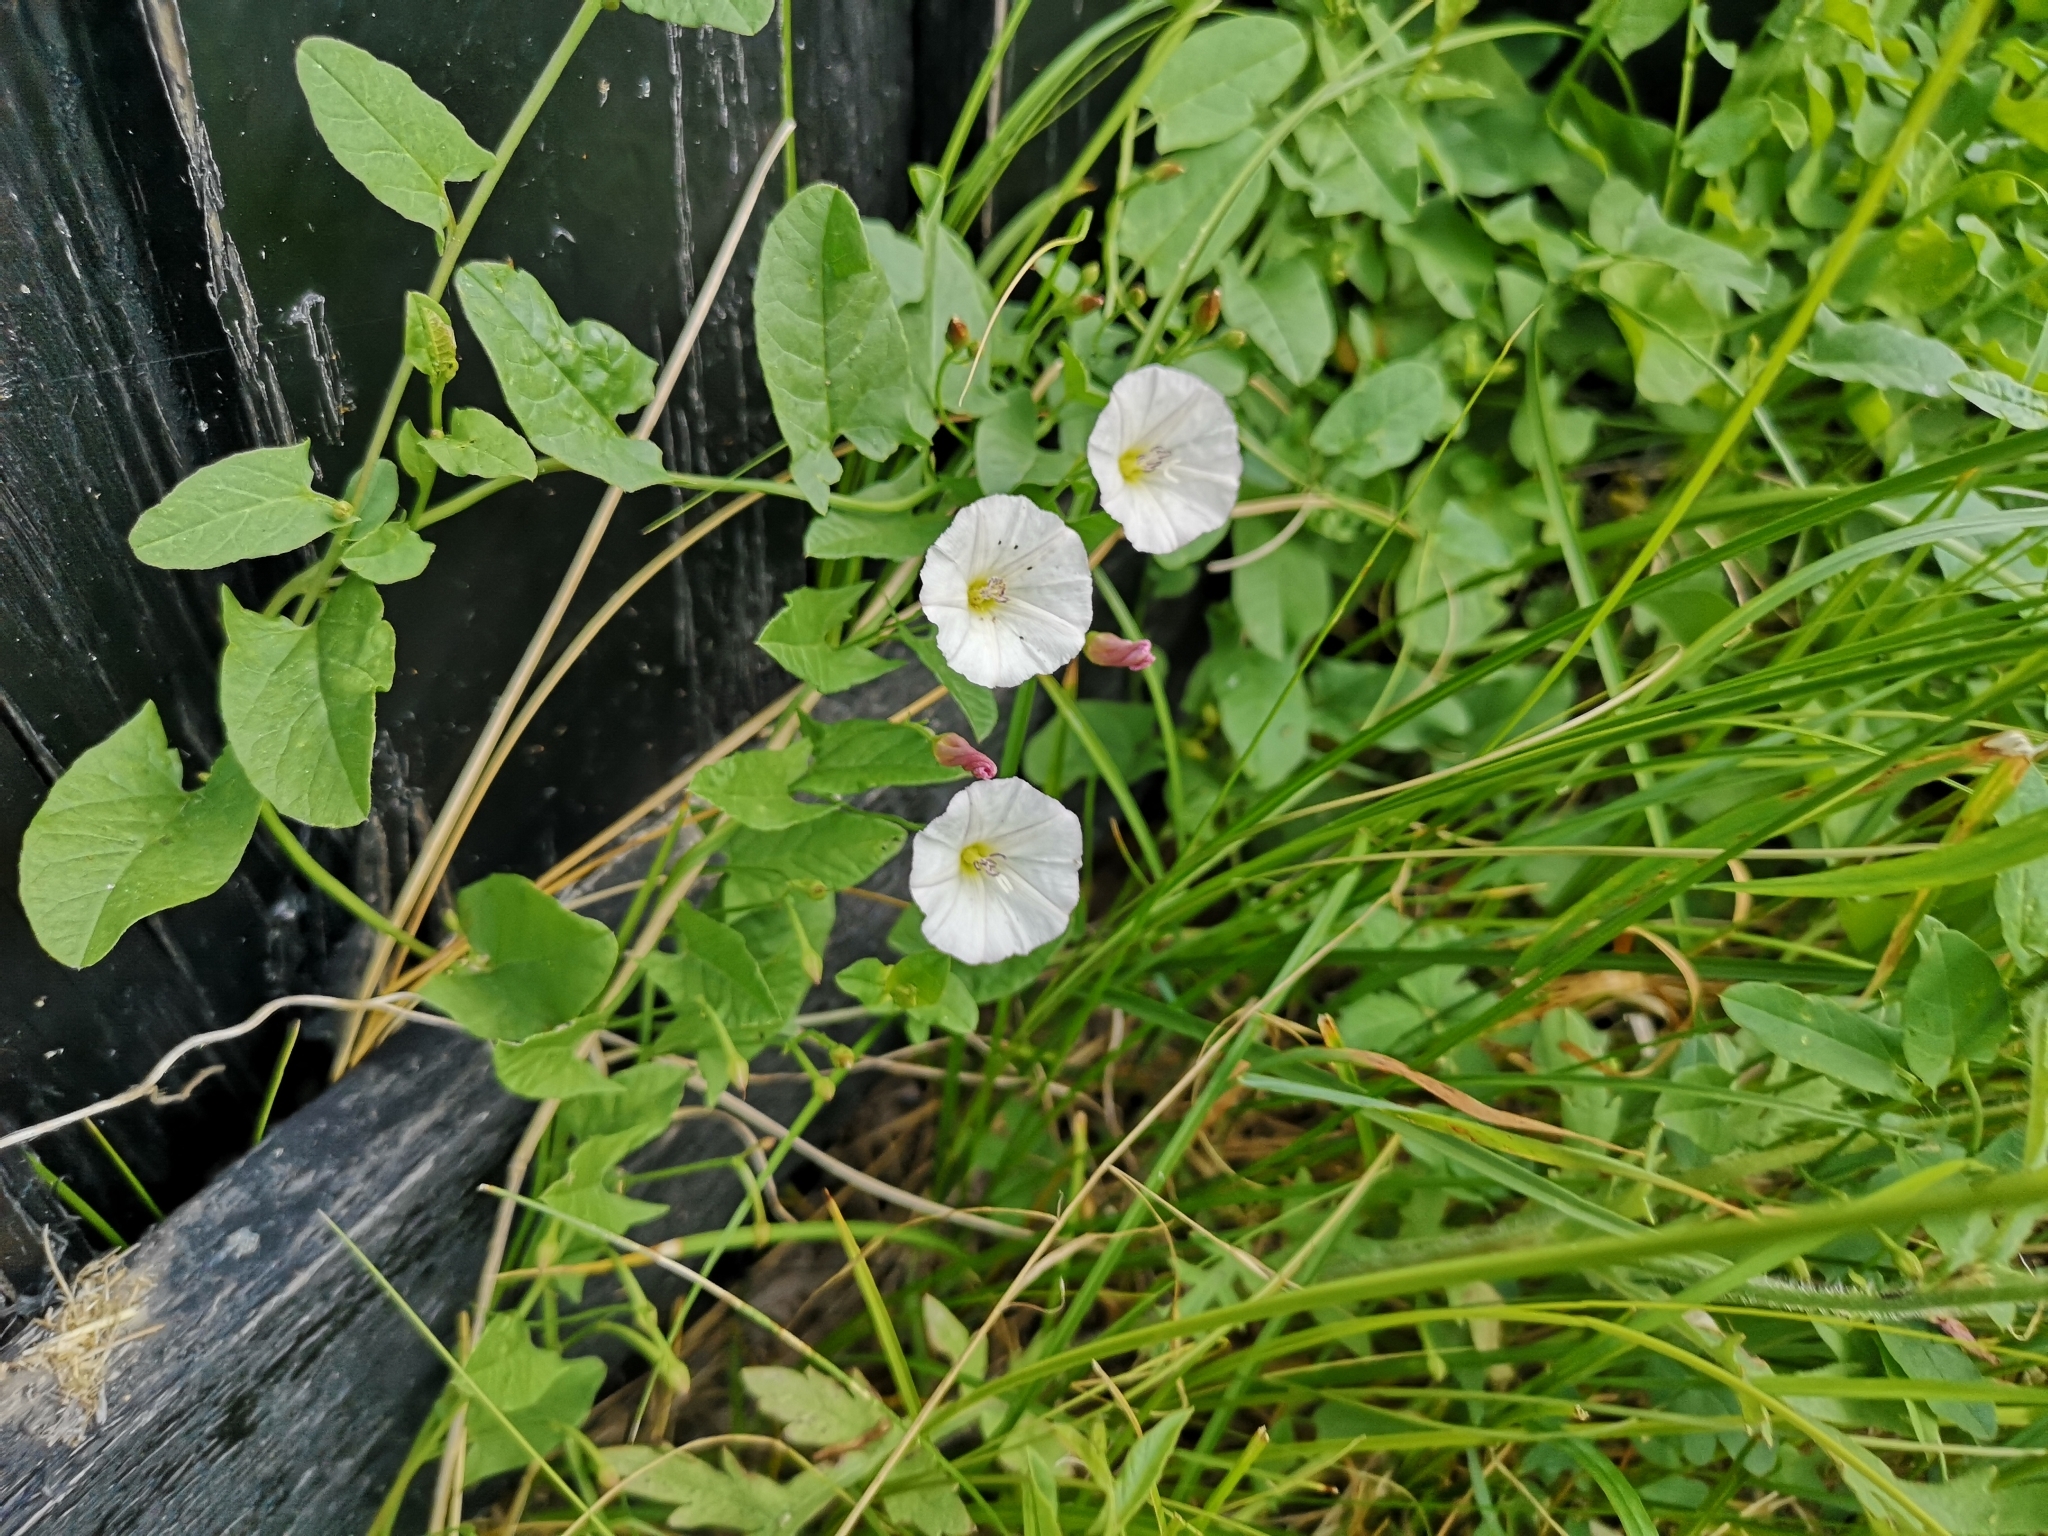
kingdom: Plantae
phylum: Tracheophyta
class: Magnoliopsida
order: Solanales
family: Convolvulaceae
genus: Convolvulus
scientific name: Convolvulus arvensis
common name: Field bindweed
